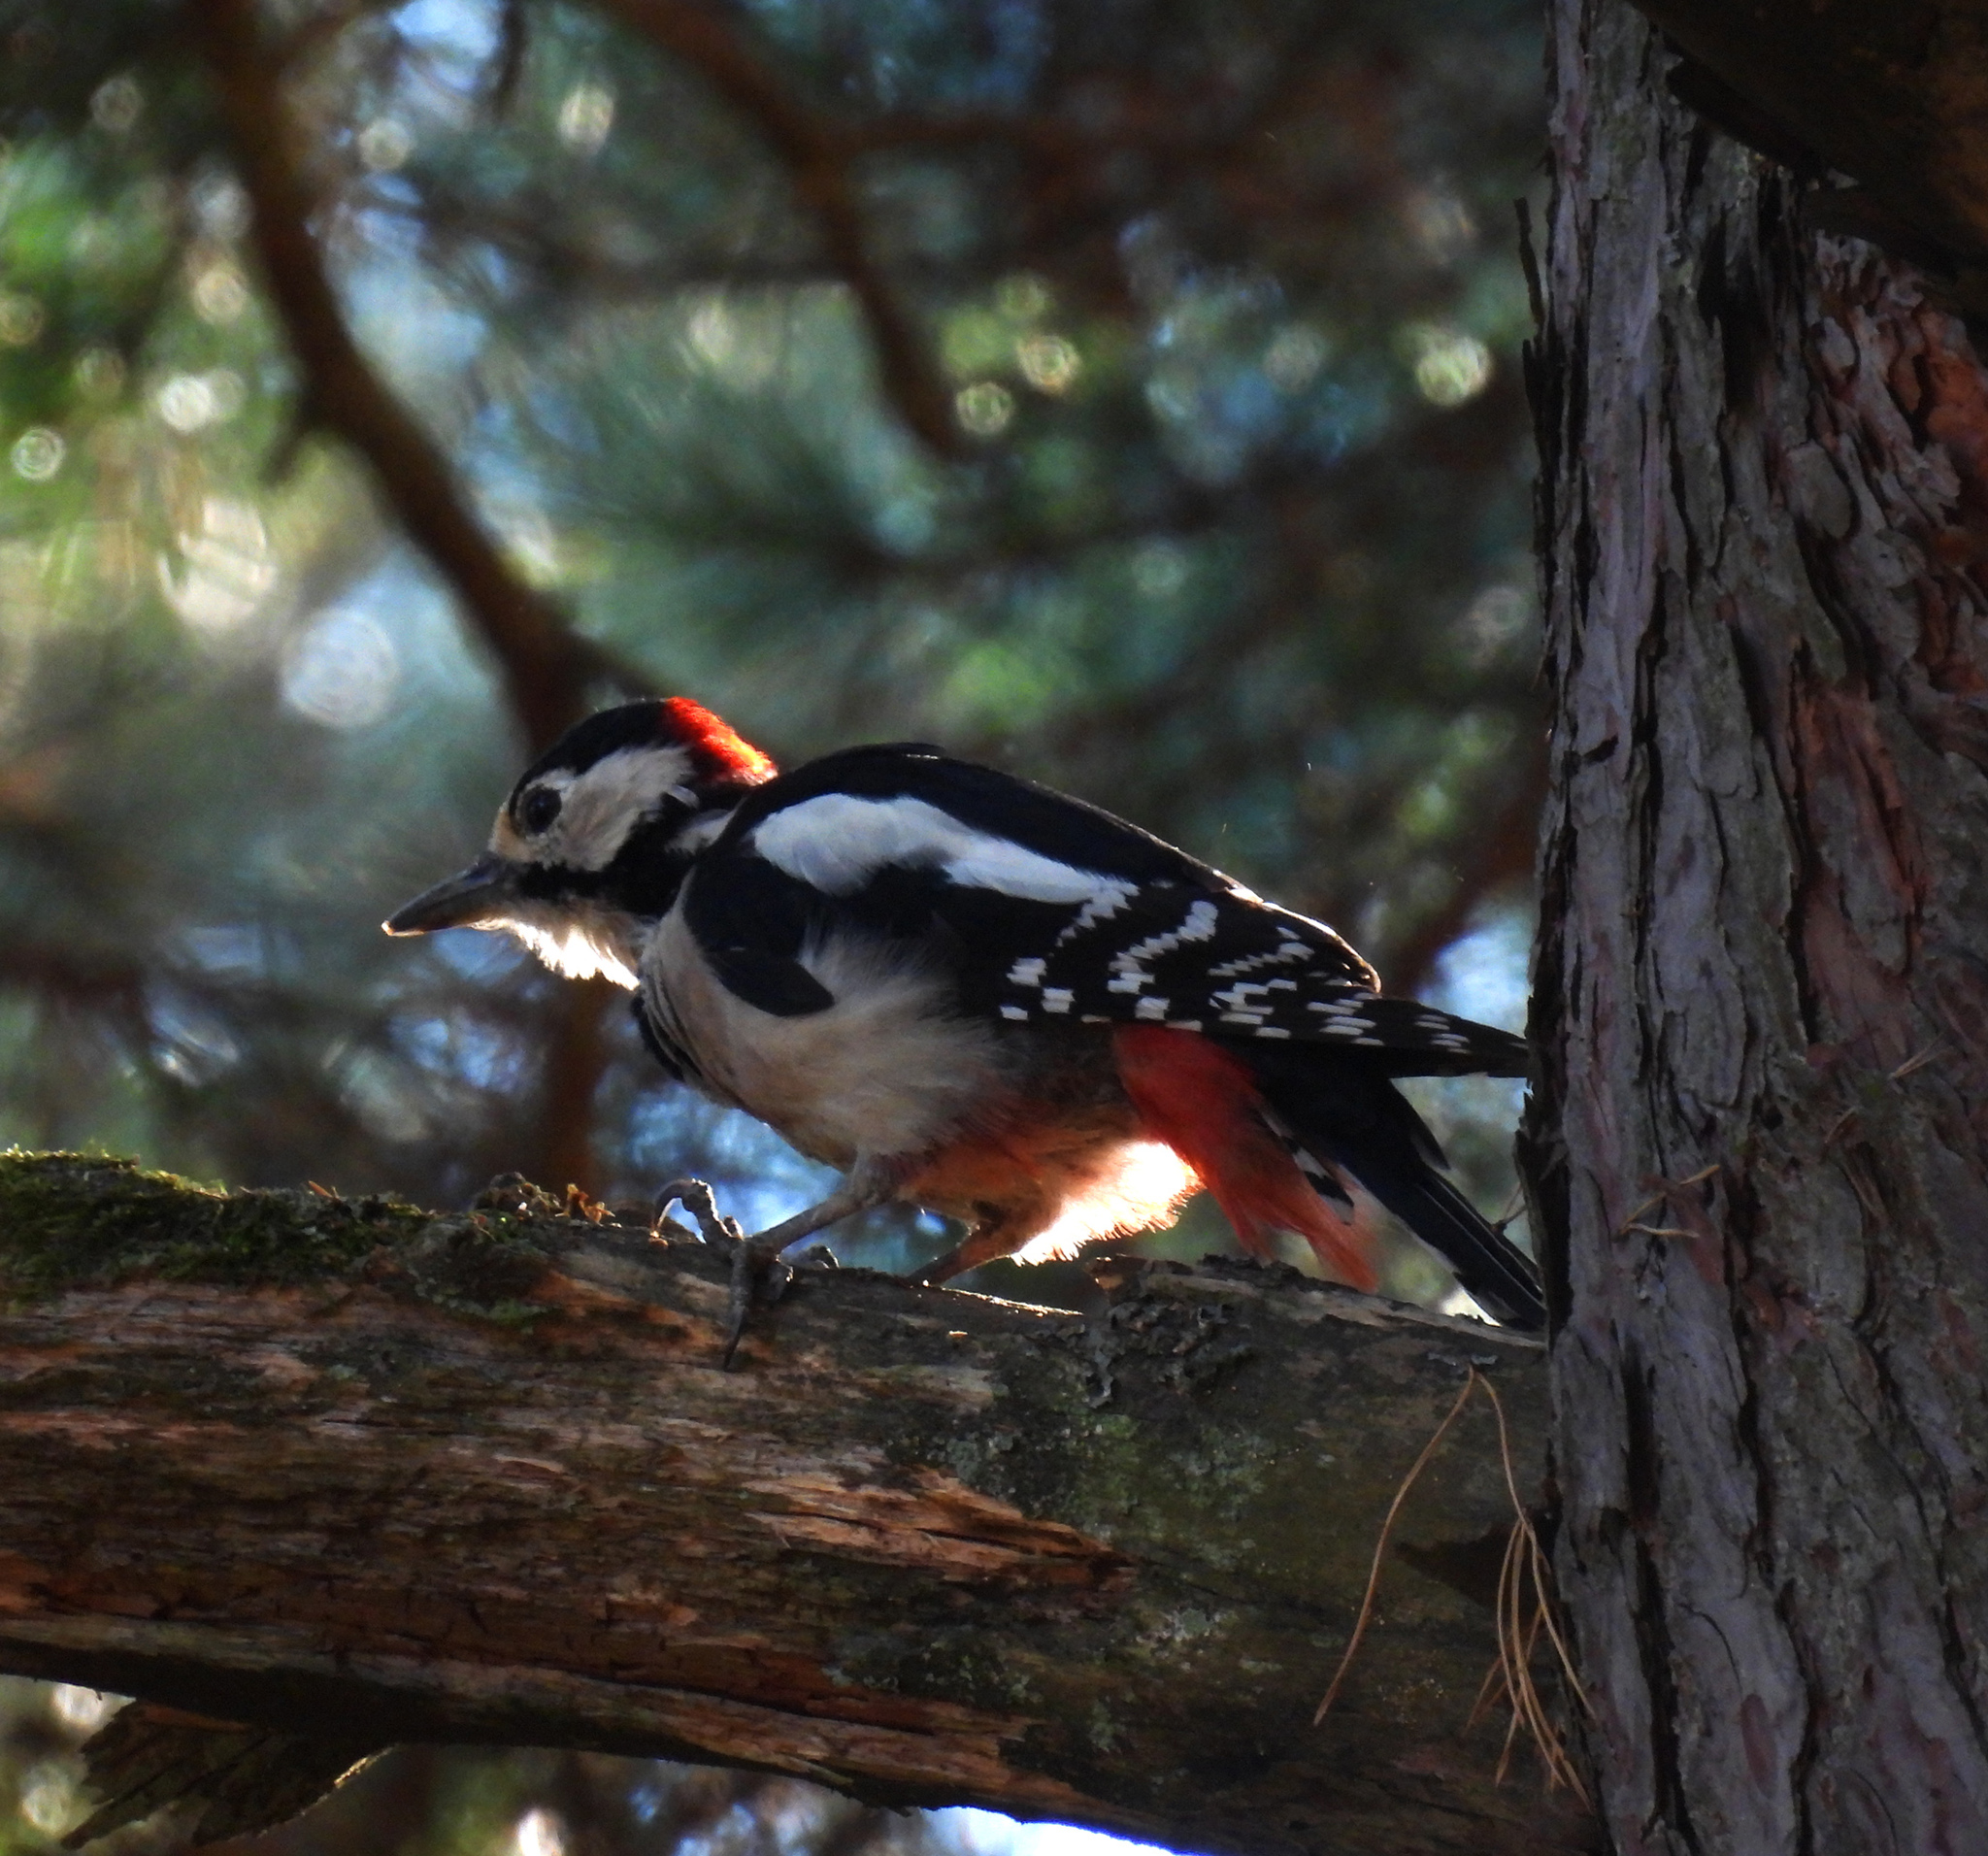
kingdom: Animalia
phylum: Chordata
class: Aves
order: Piciformes
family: Picidae
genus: Dendrocopos
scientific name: Dendrocopos major
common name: Great spotted woodpecker
